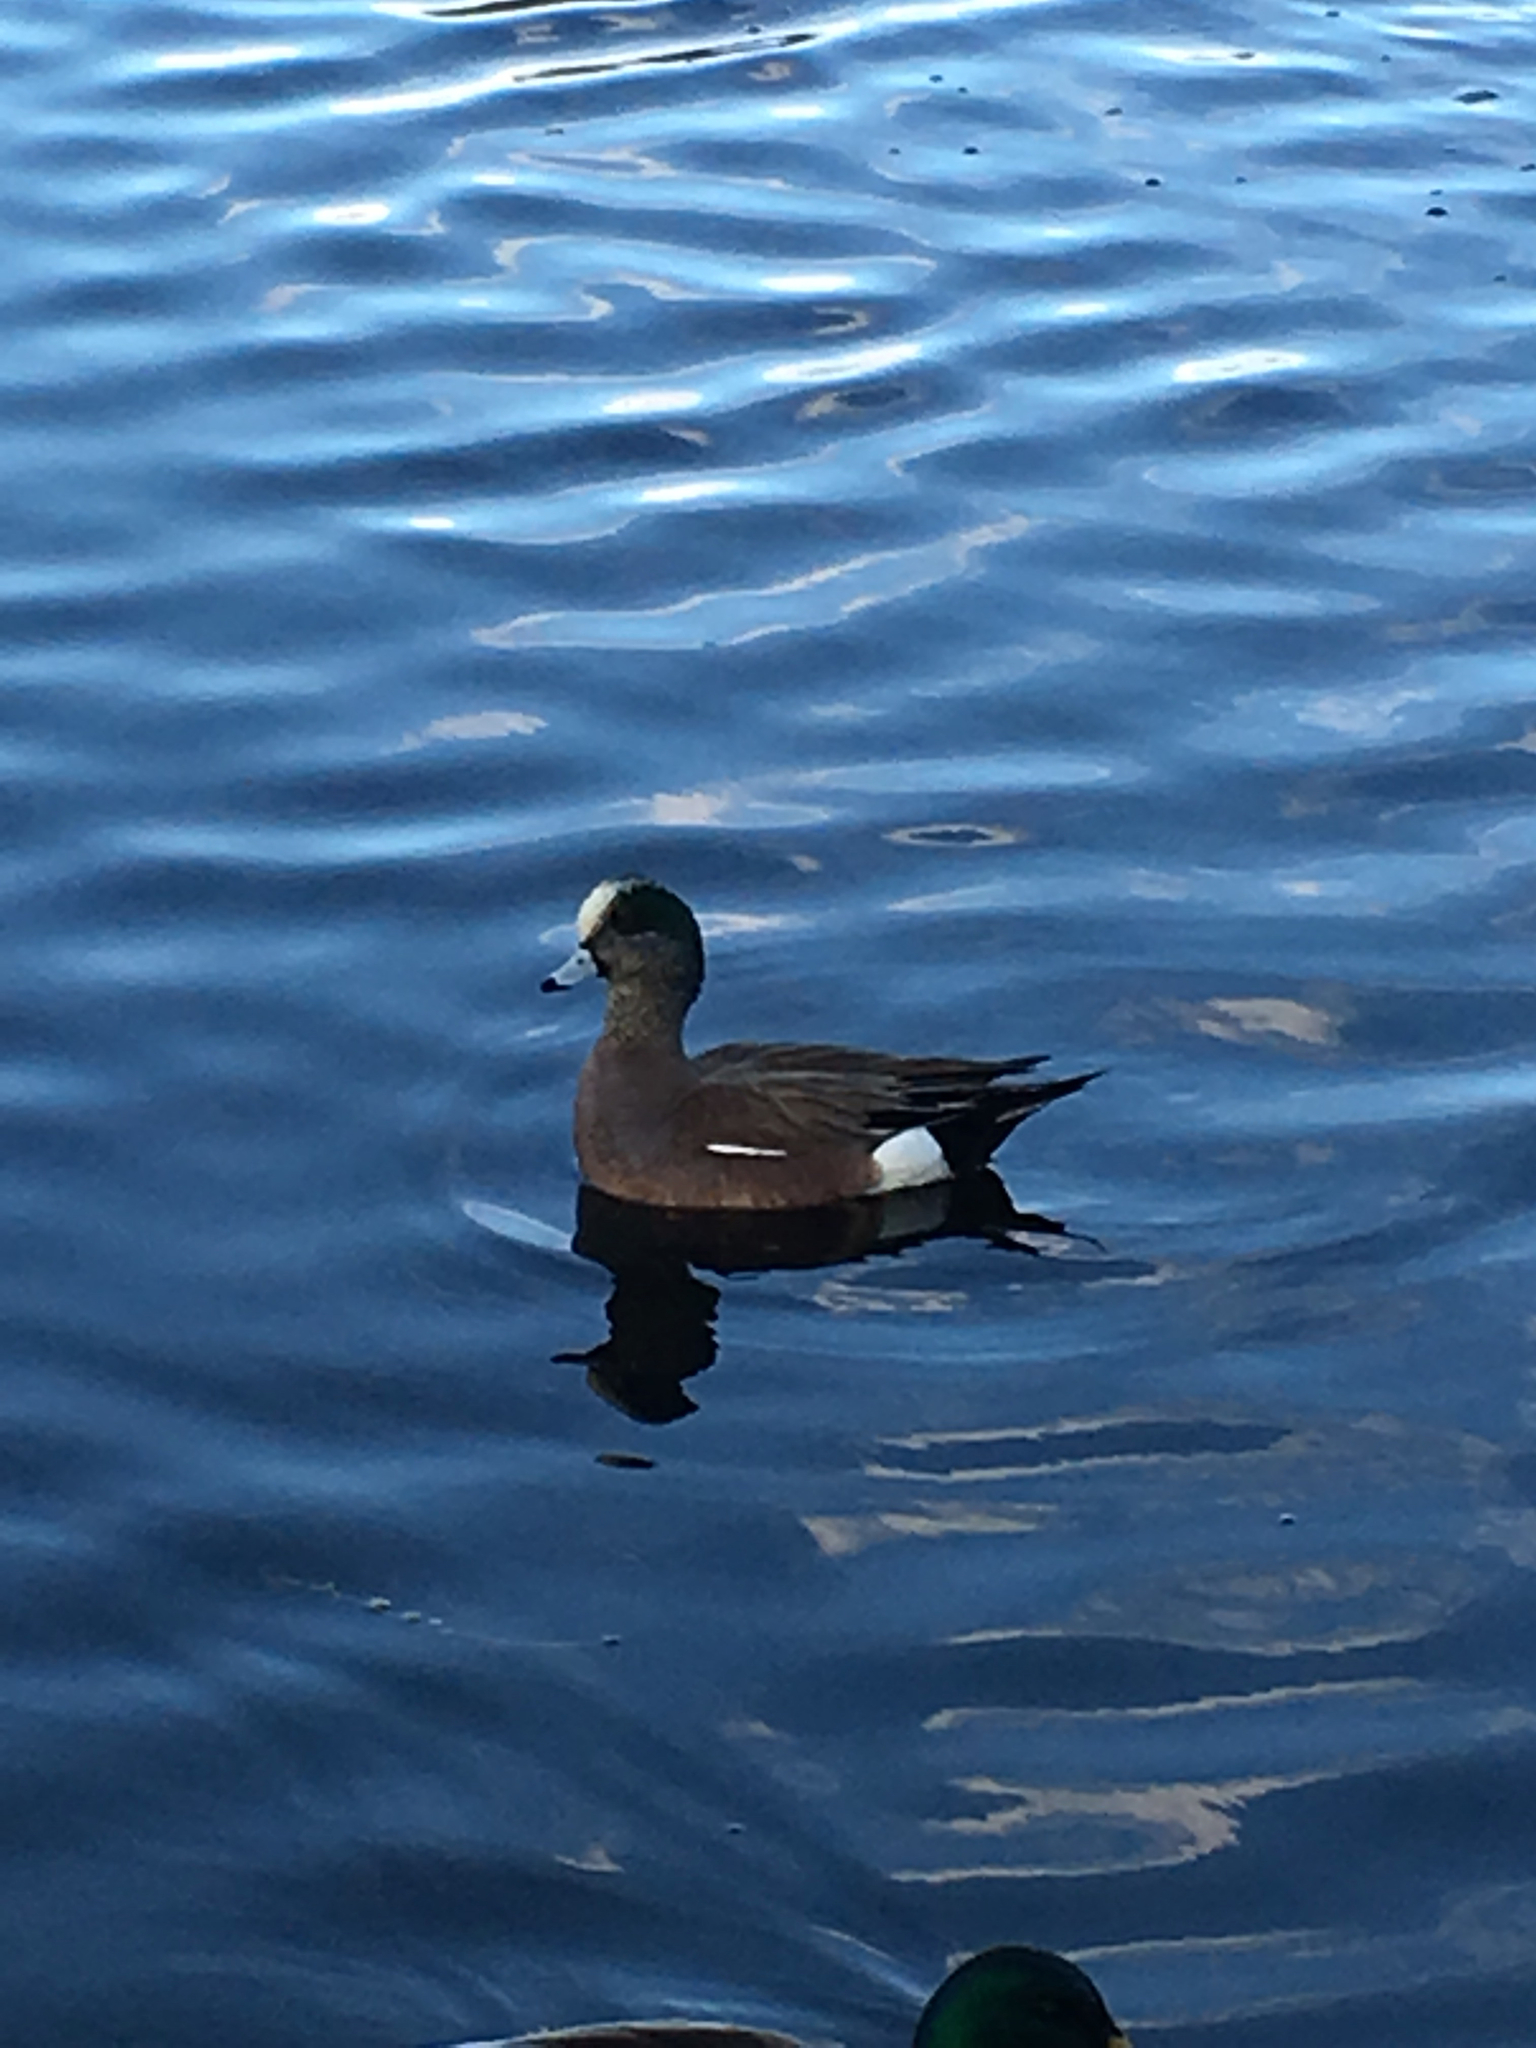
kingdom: Animalia
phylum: Chordata
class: Aves
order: Anseriformes
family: Anatidae
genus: Mareca
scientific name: Mareca americana
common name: American wigeon
